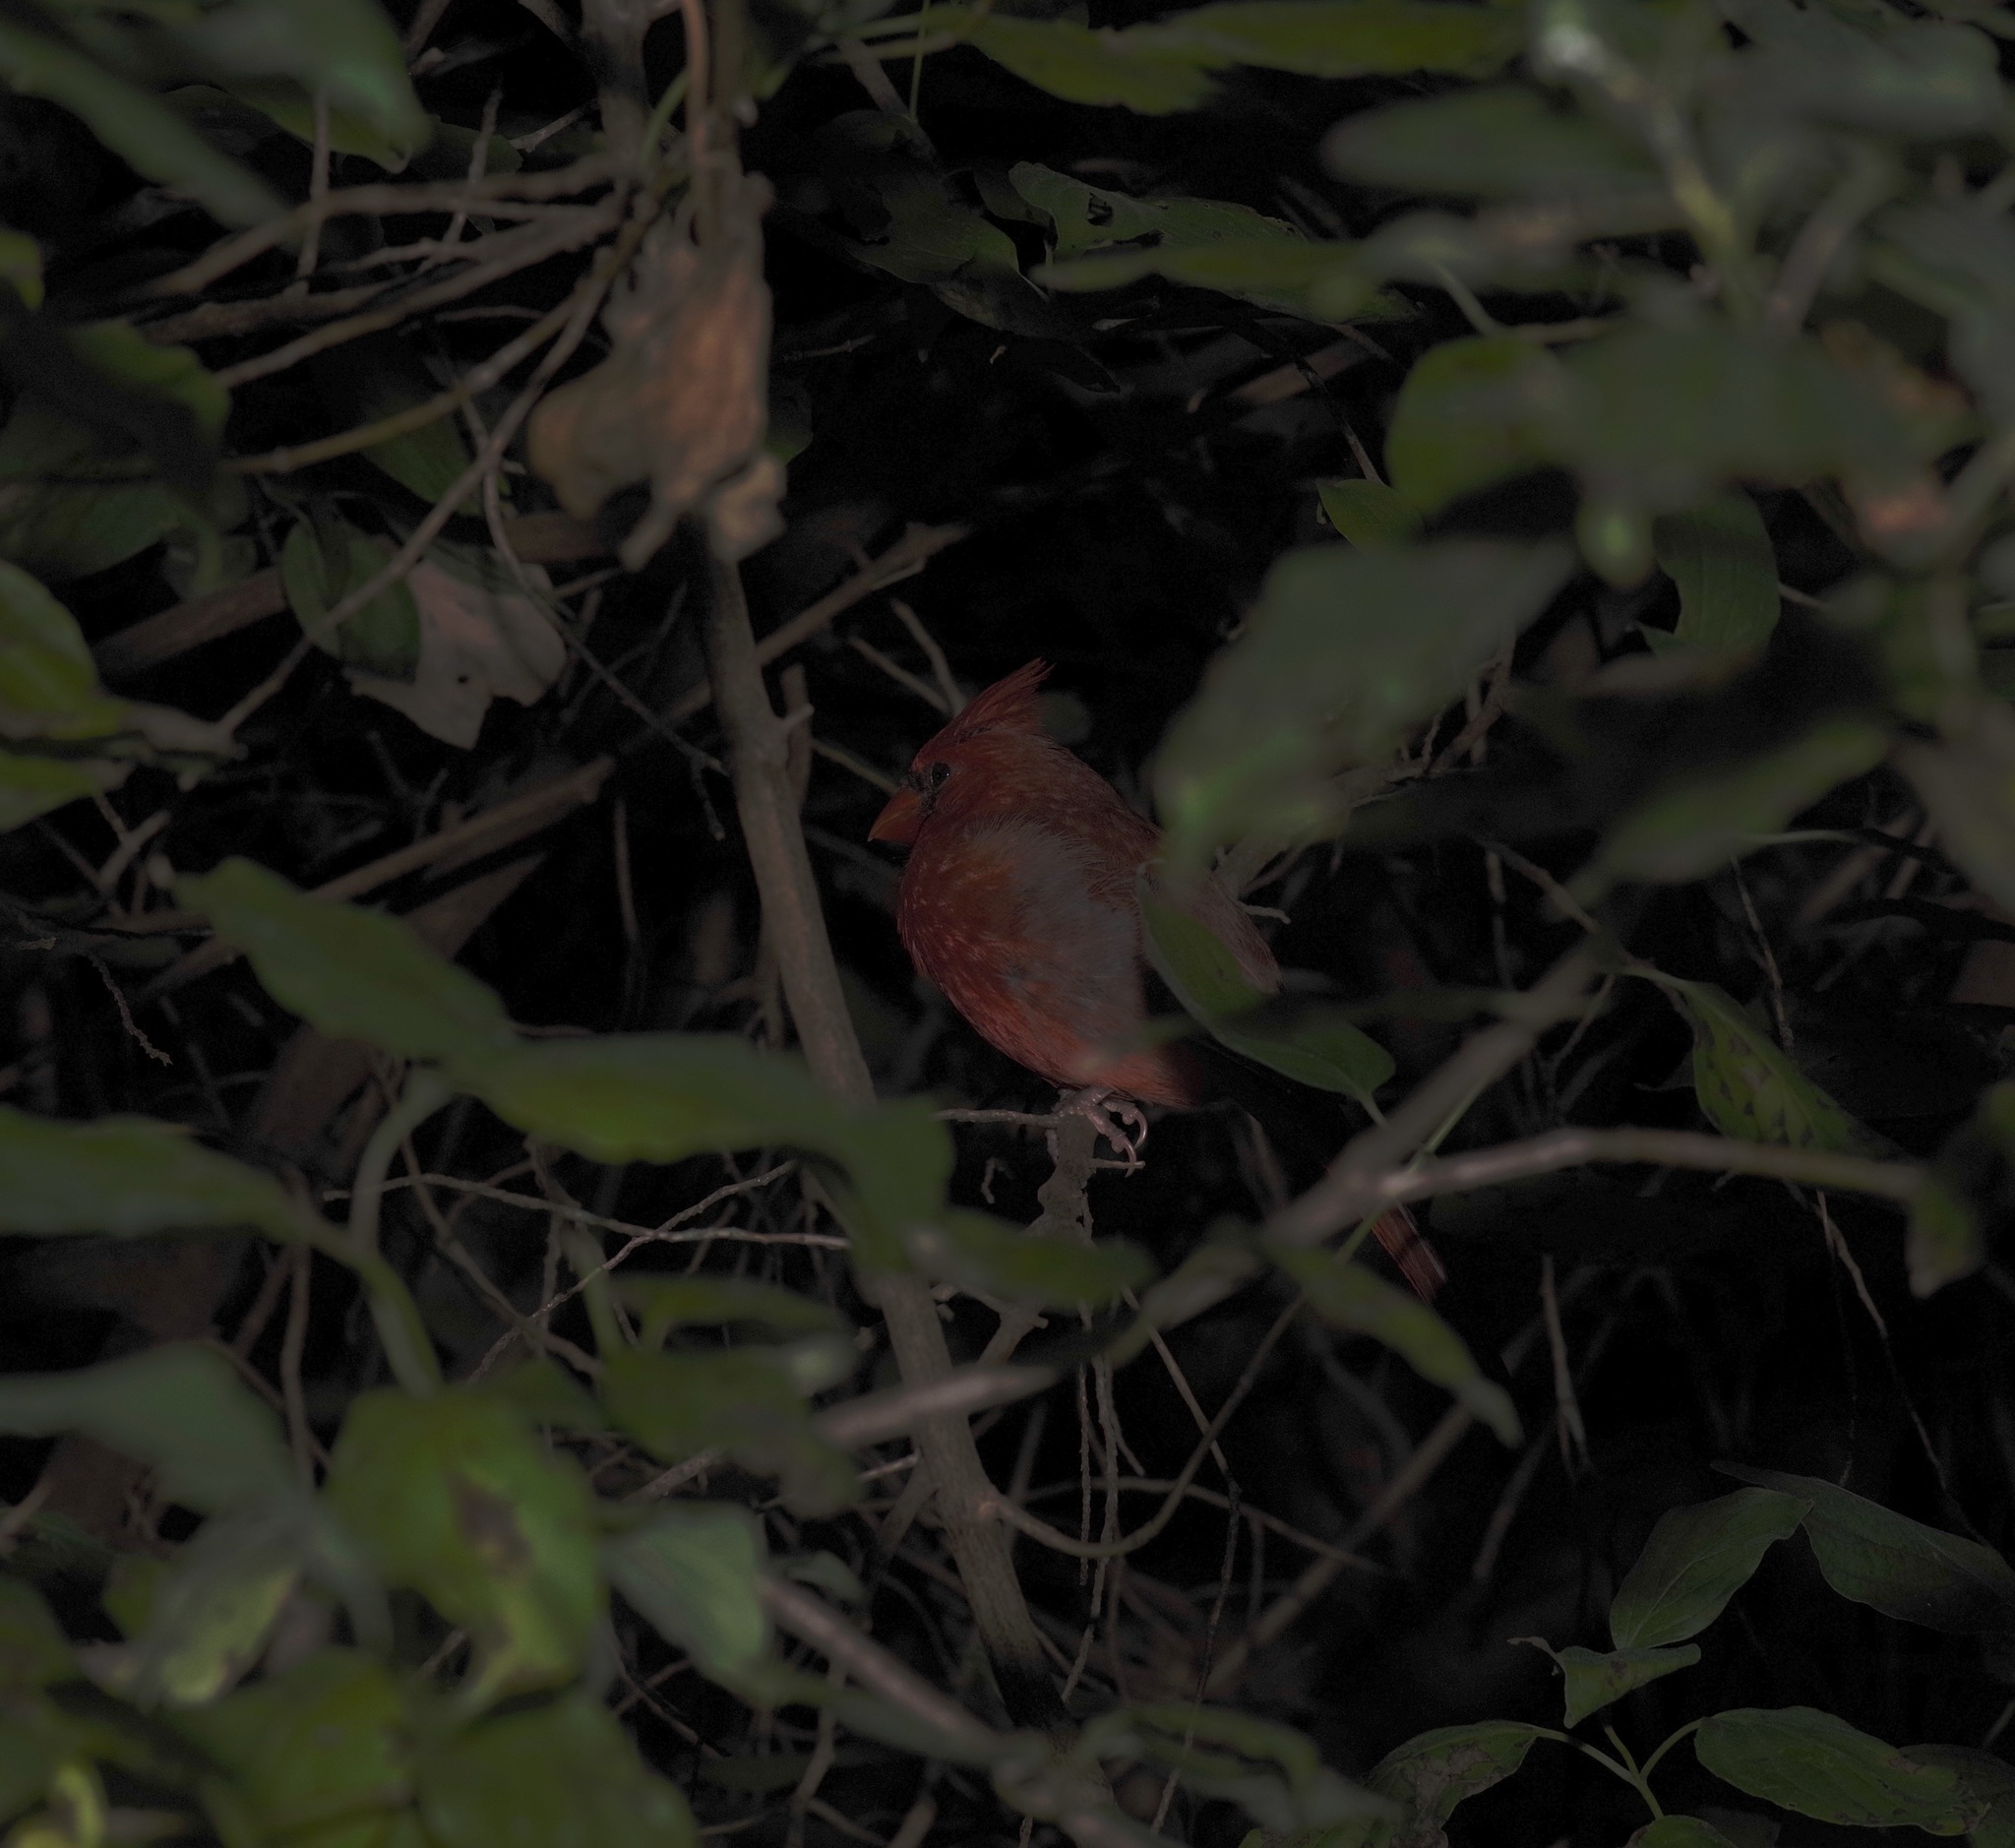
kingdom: Animalia
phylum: Chordata
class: Aves
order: Passeriformes
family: Cardinalidae
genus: Cardinalis
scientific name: Cardinalis cardinalis
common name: Northern cardinal
